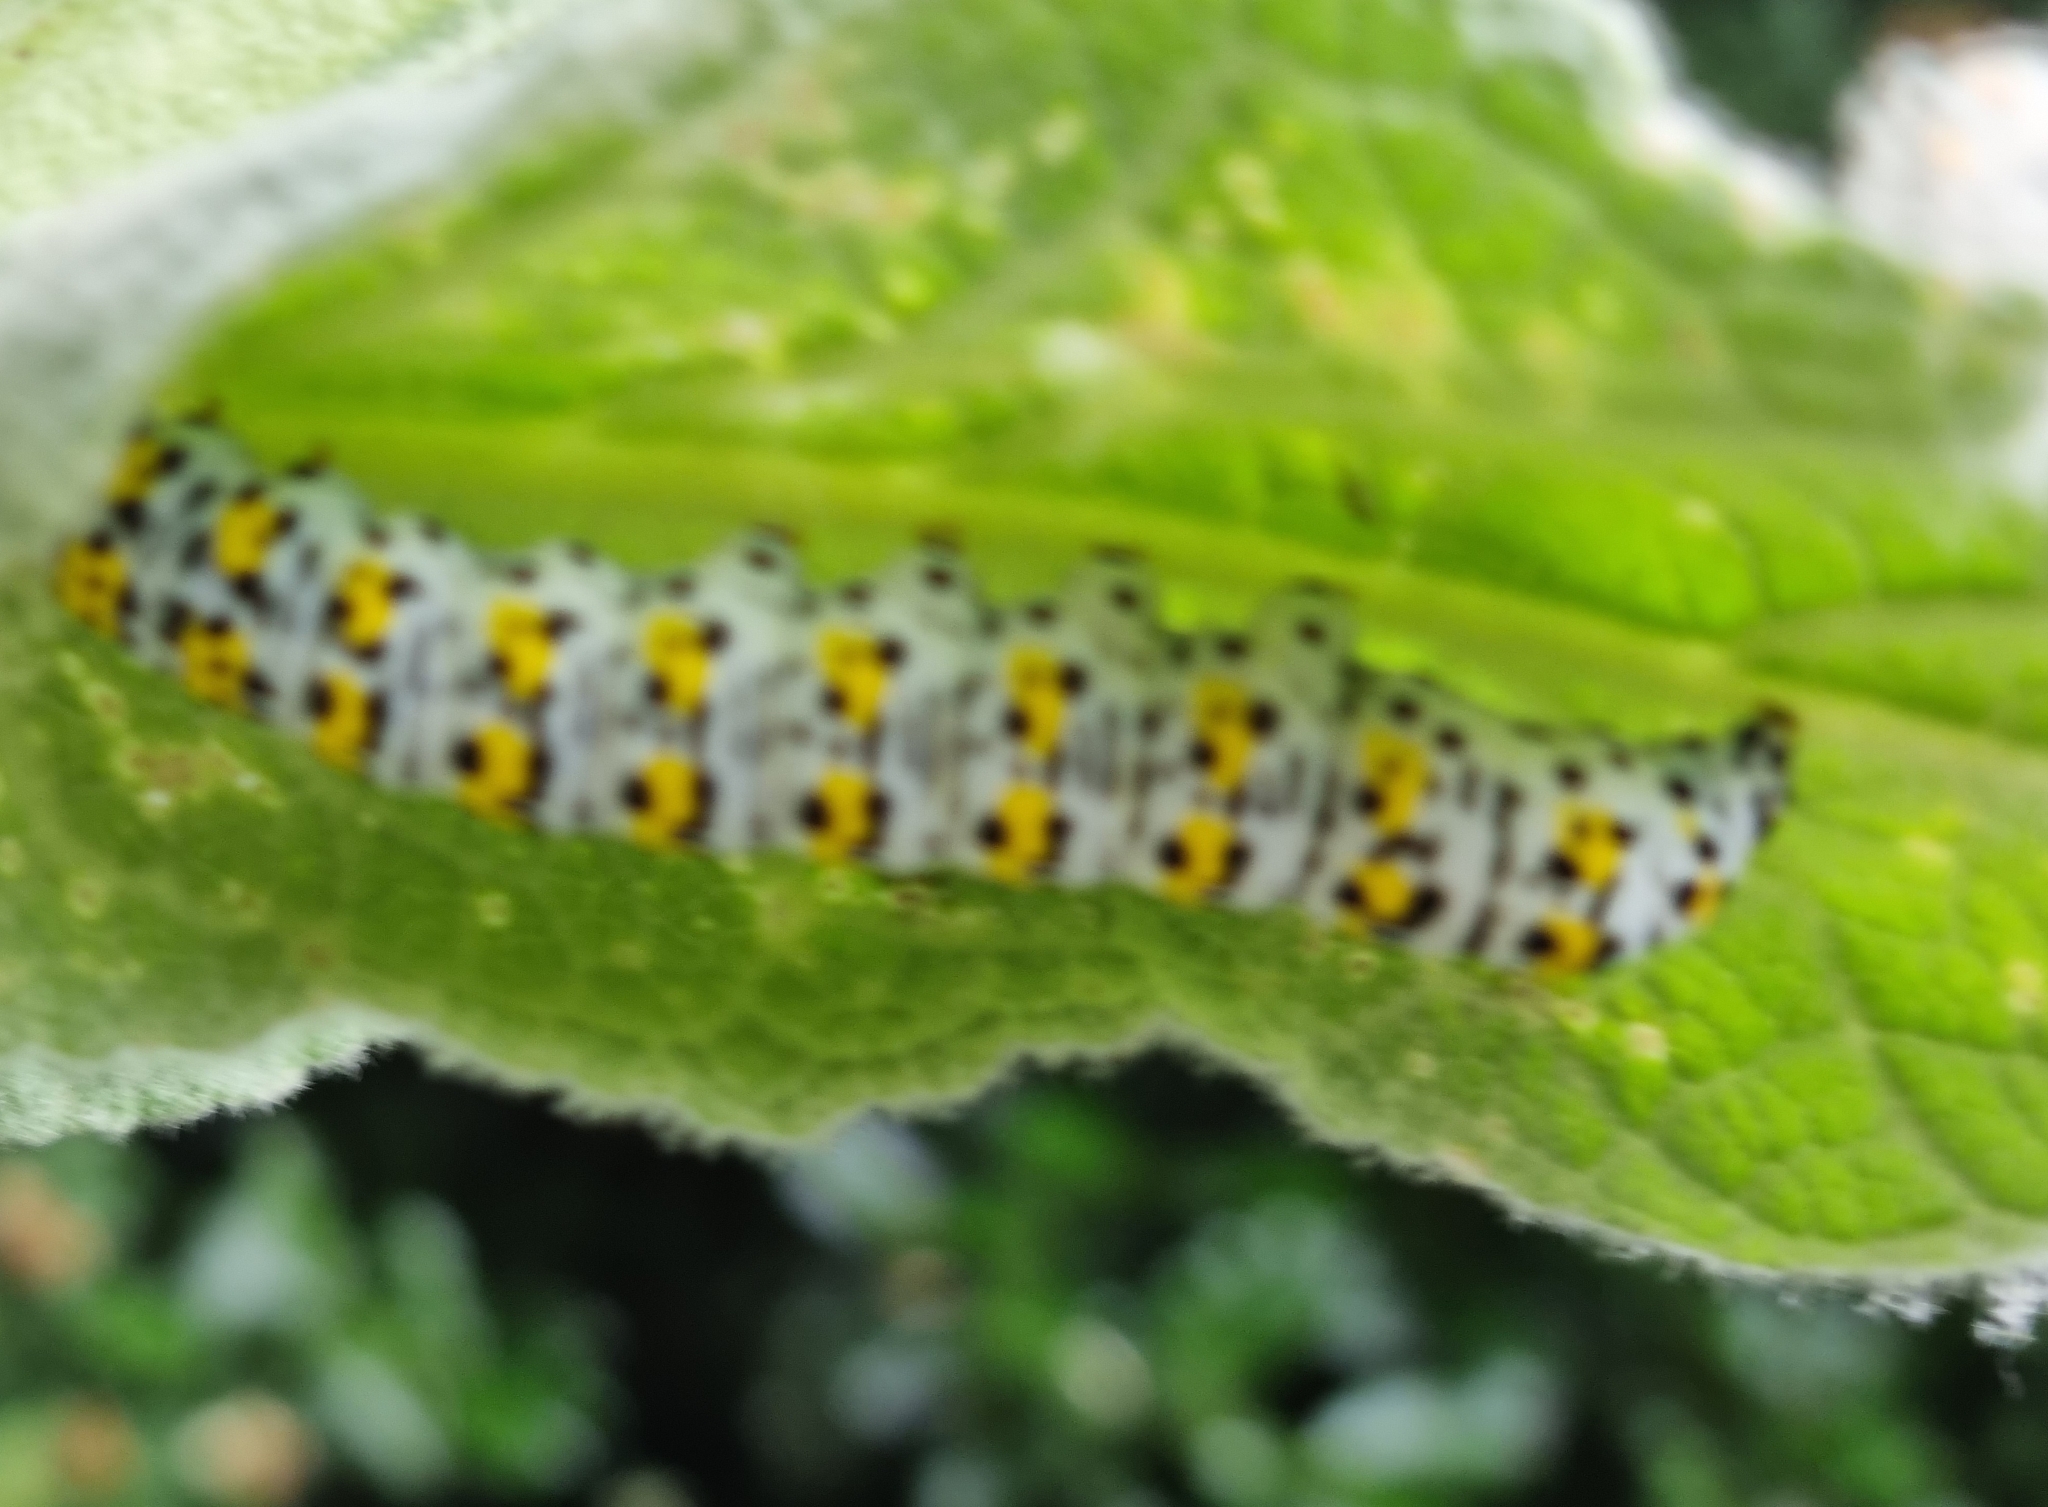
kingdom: Animalia
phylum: Arthropoda
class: Insecta
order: Lepidoptera
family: Noctuidae
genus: Cucullia
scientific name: Cucullia verbasci
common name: Mullein
